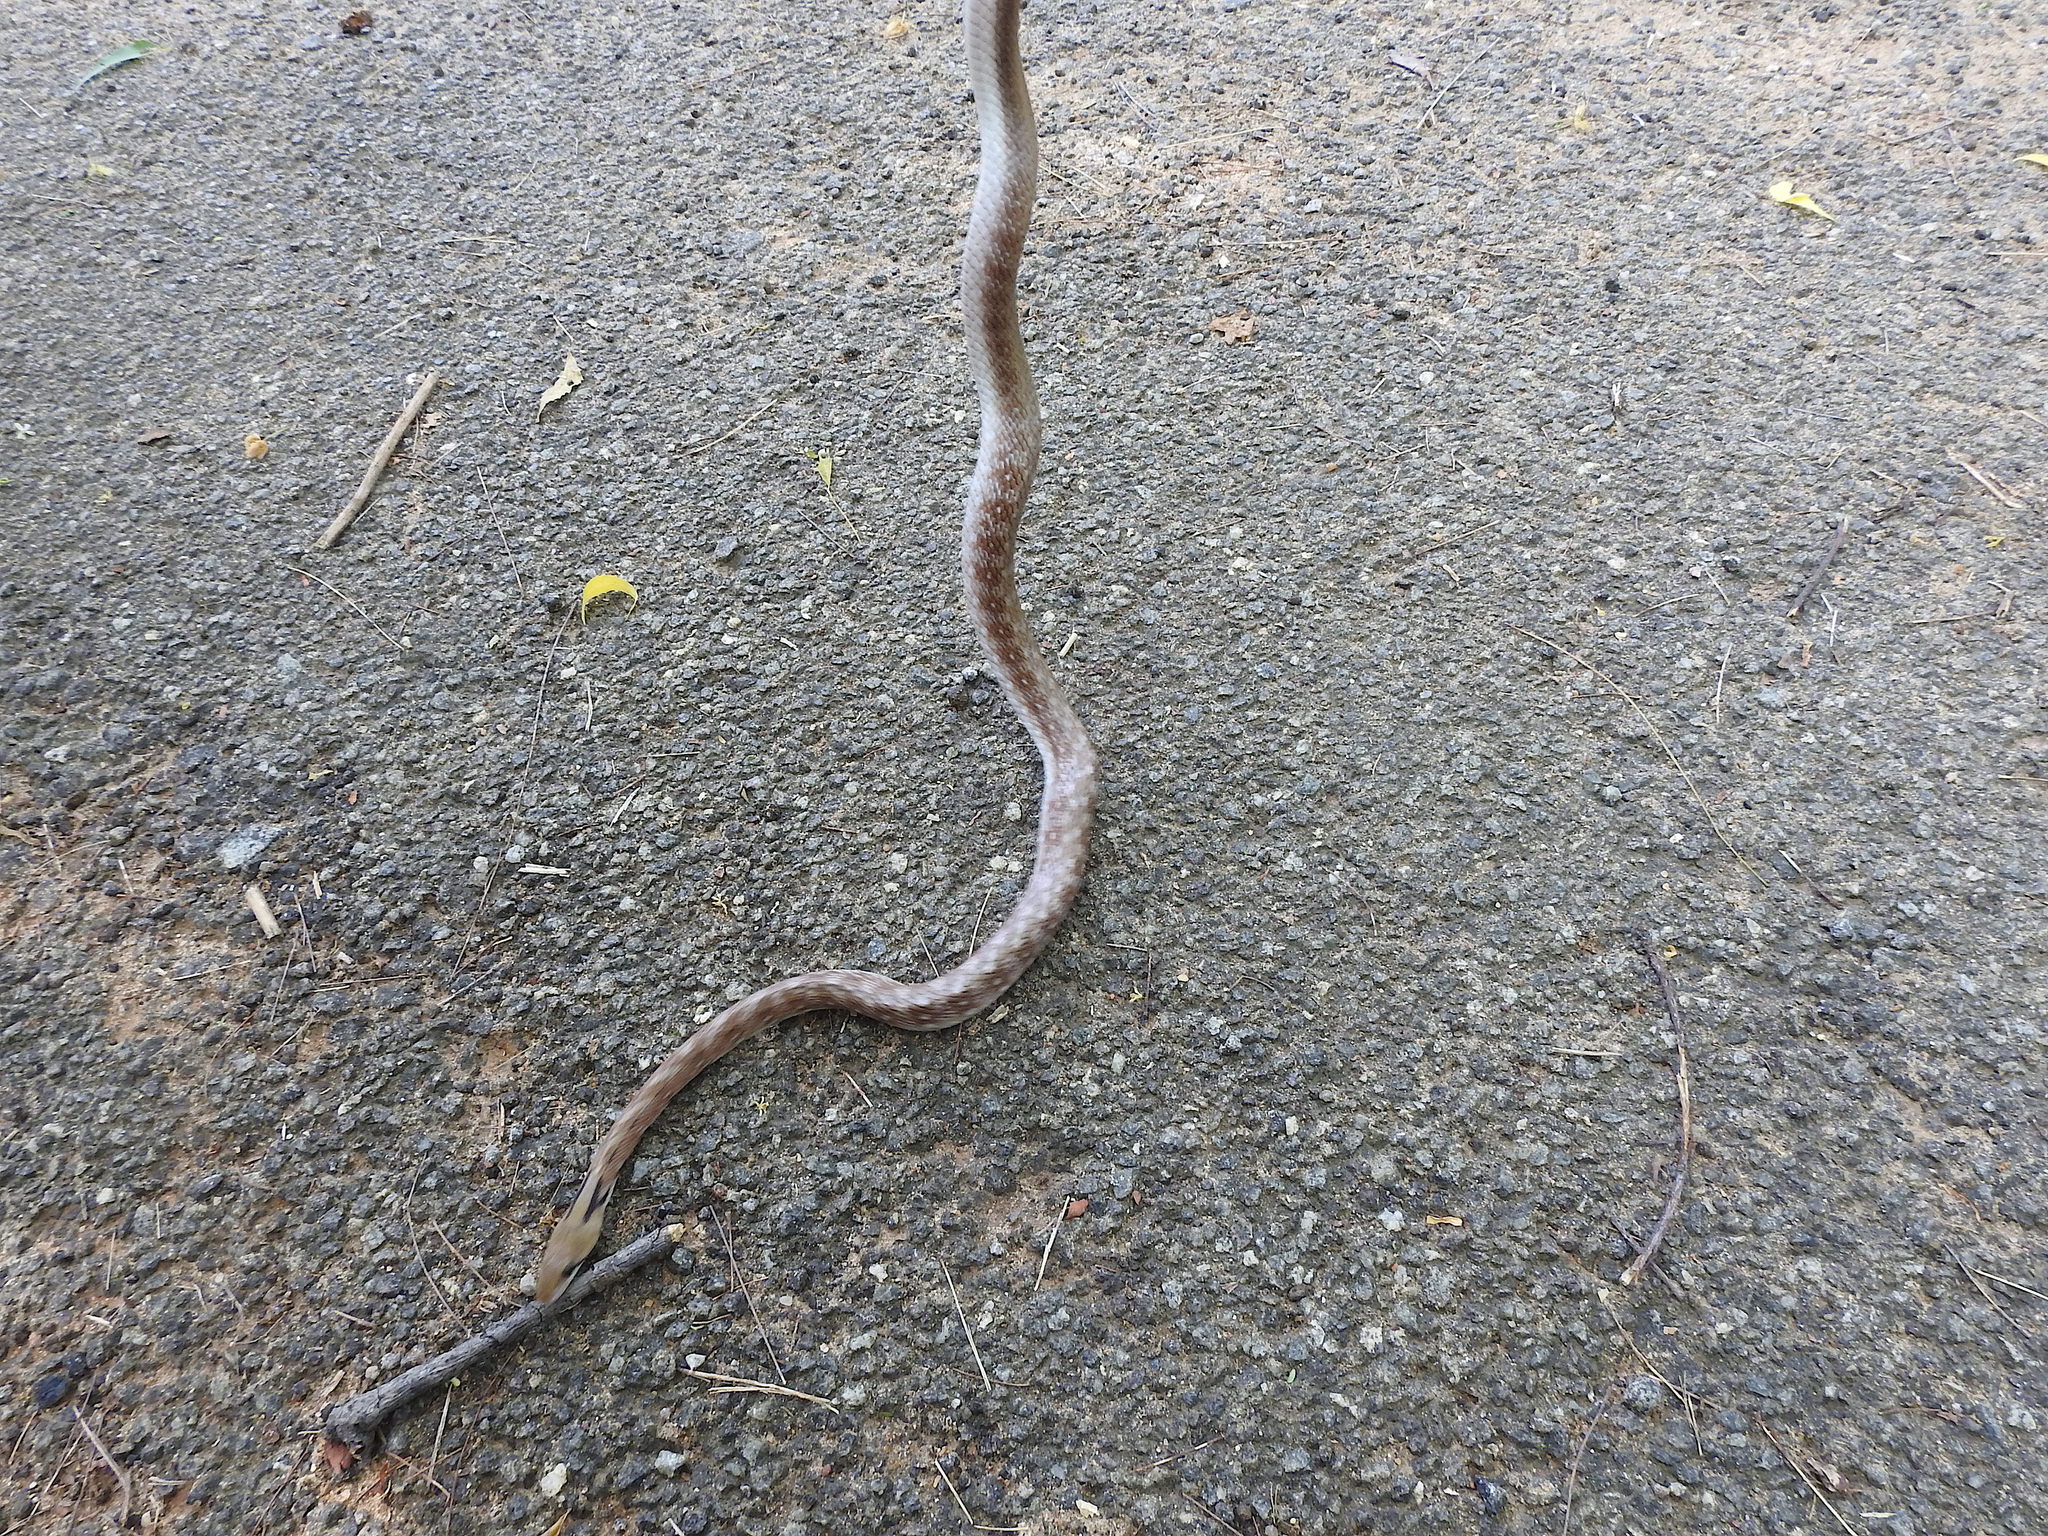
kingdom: Animalia
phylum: Chordata
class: Squamata
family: Colubridae
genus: Coelognathus
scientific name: Coelognathus helena
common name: Trinket snake
